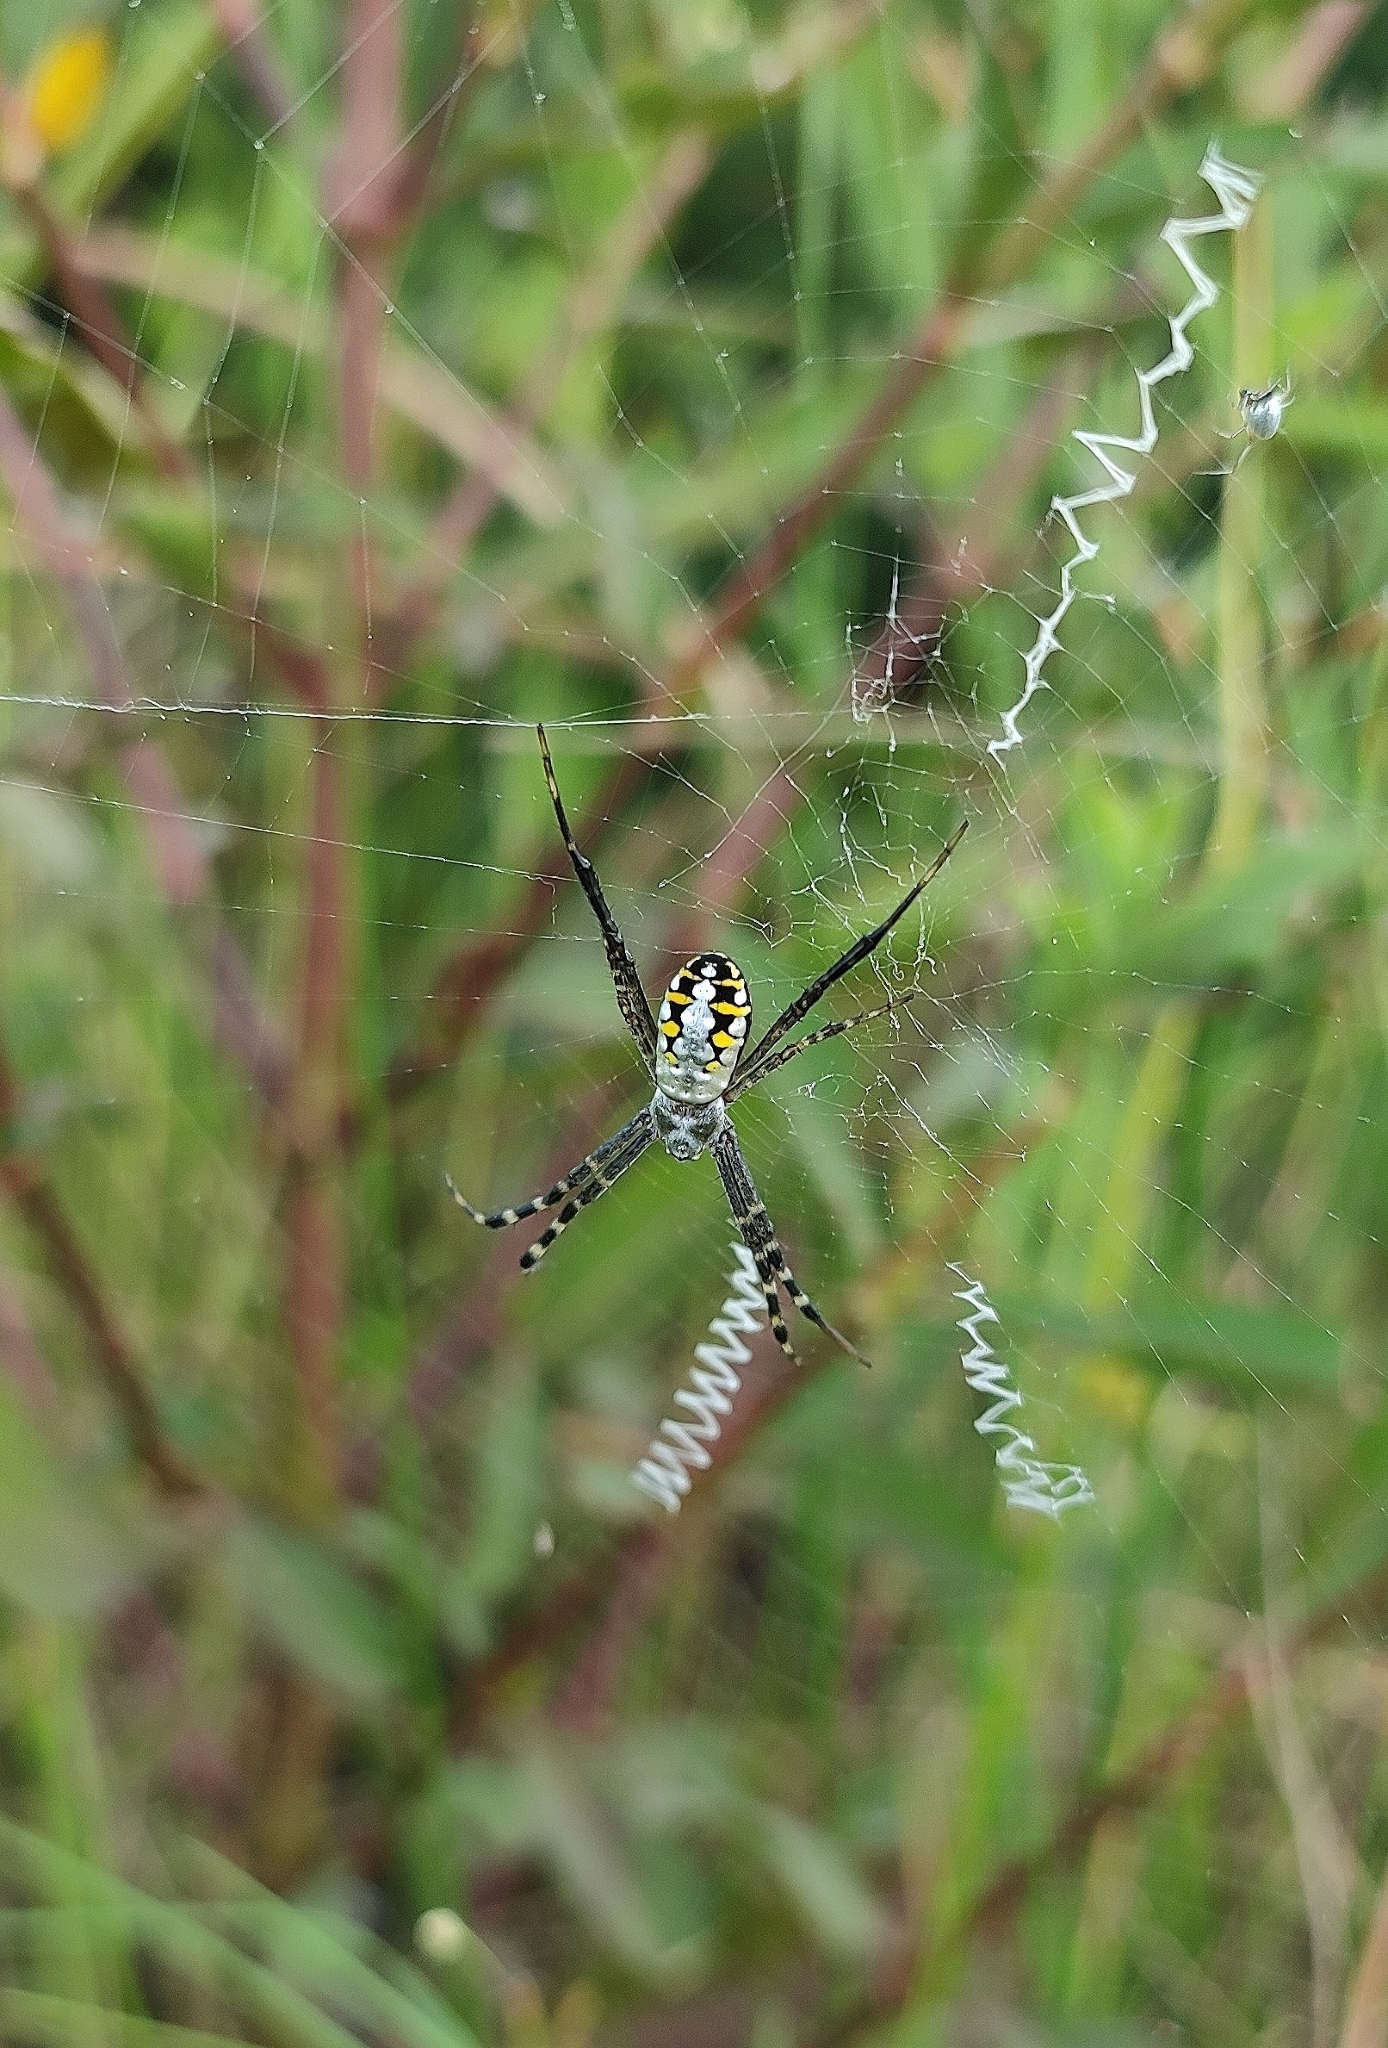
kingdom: Animalia
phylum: Arthropoda
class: Arachnida
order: Araneae
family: Araneidae
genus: Argiope
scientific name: Argiope catenulata
